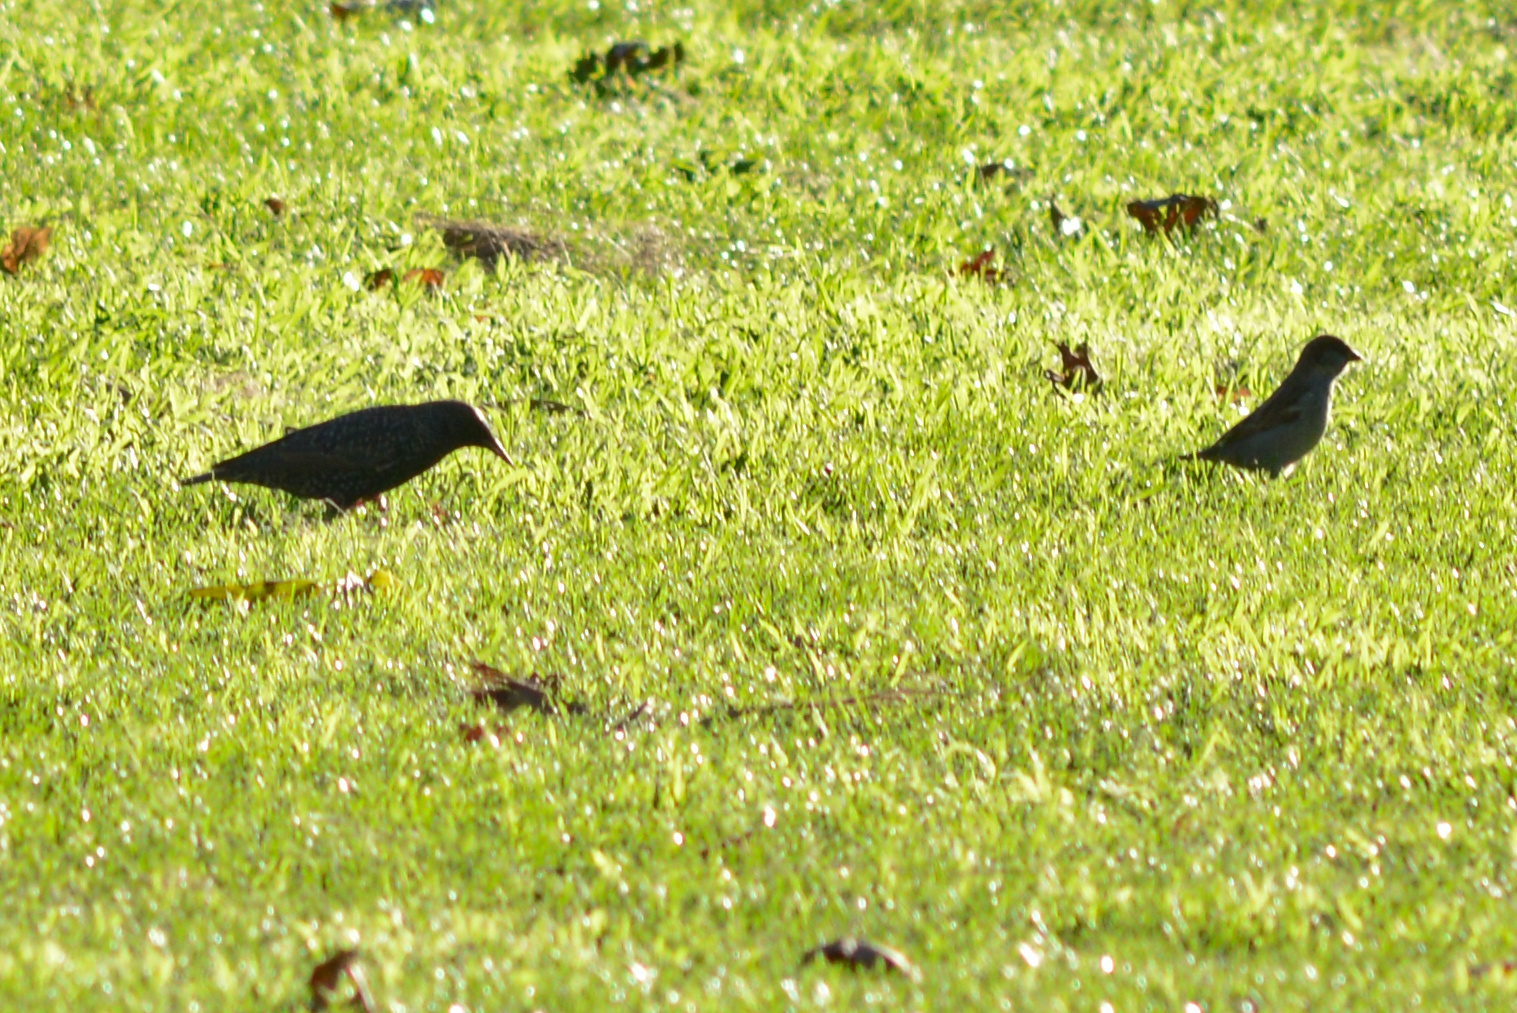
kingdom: Animalia
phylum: Chordata
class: Aves
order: Passeriformes
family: Passeridae
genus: Passer
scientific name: Passer domesticus
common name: House sparrow
